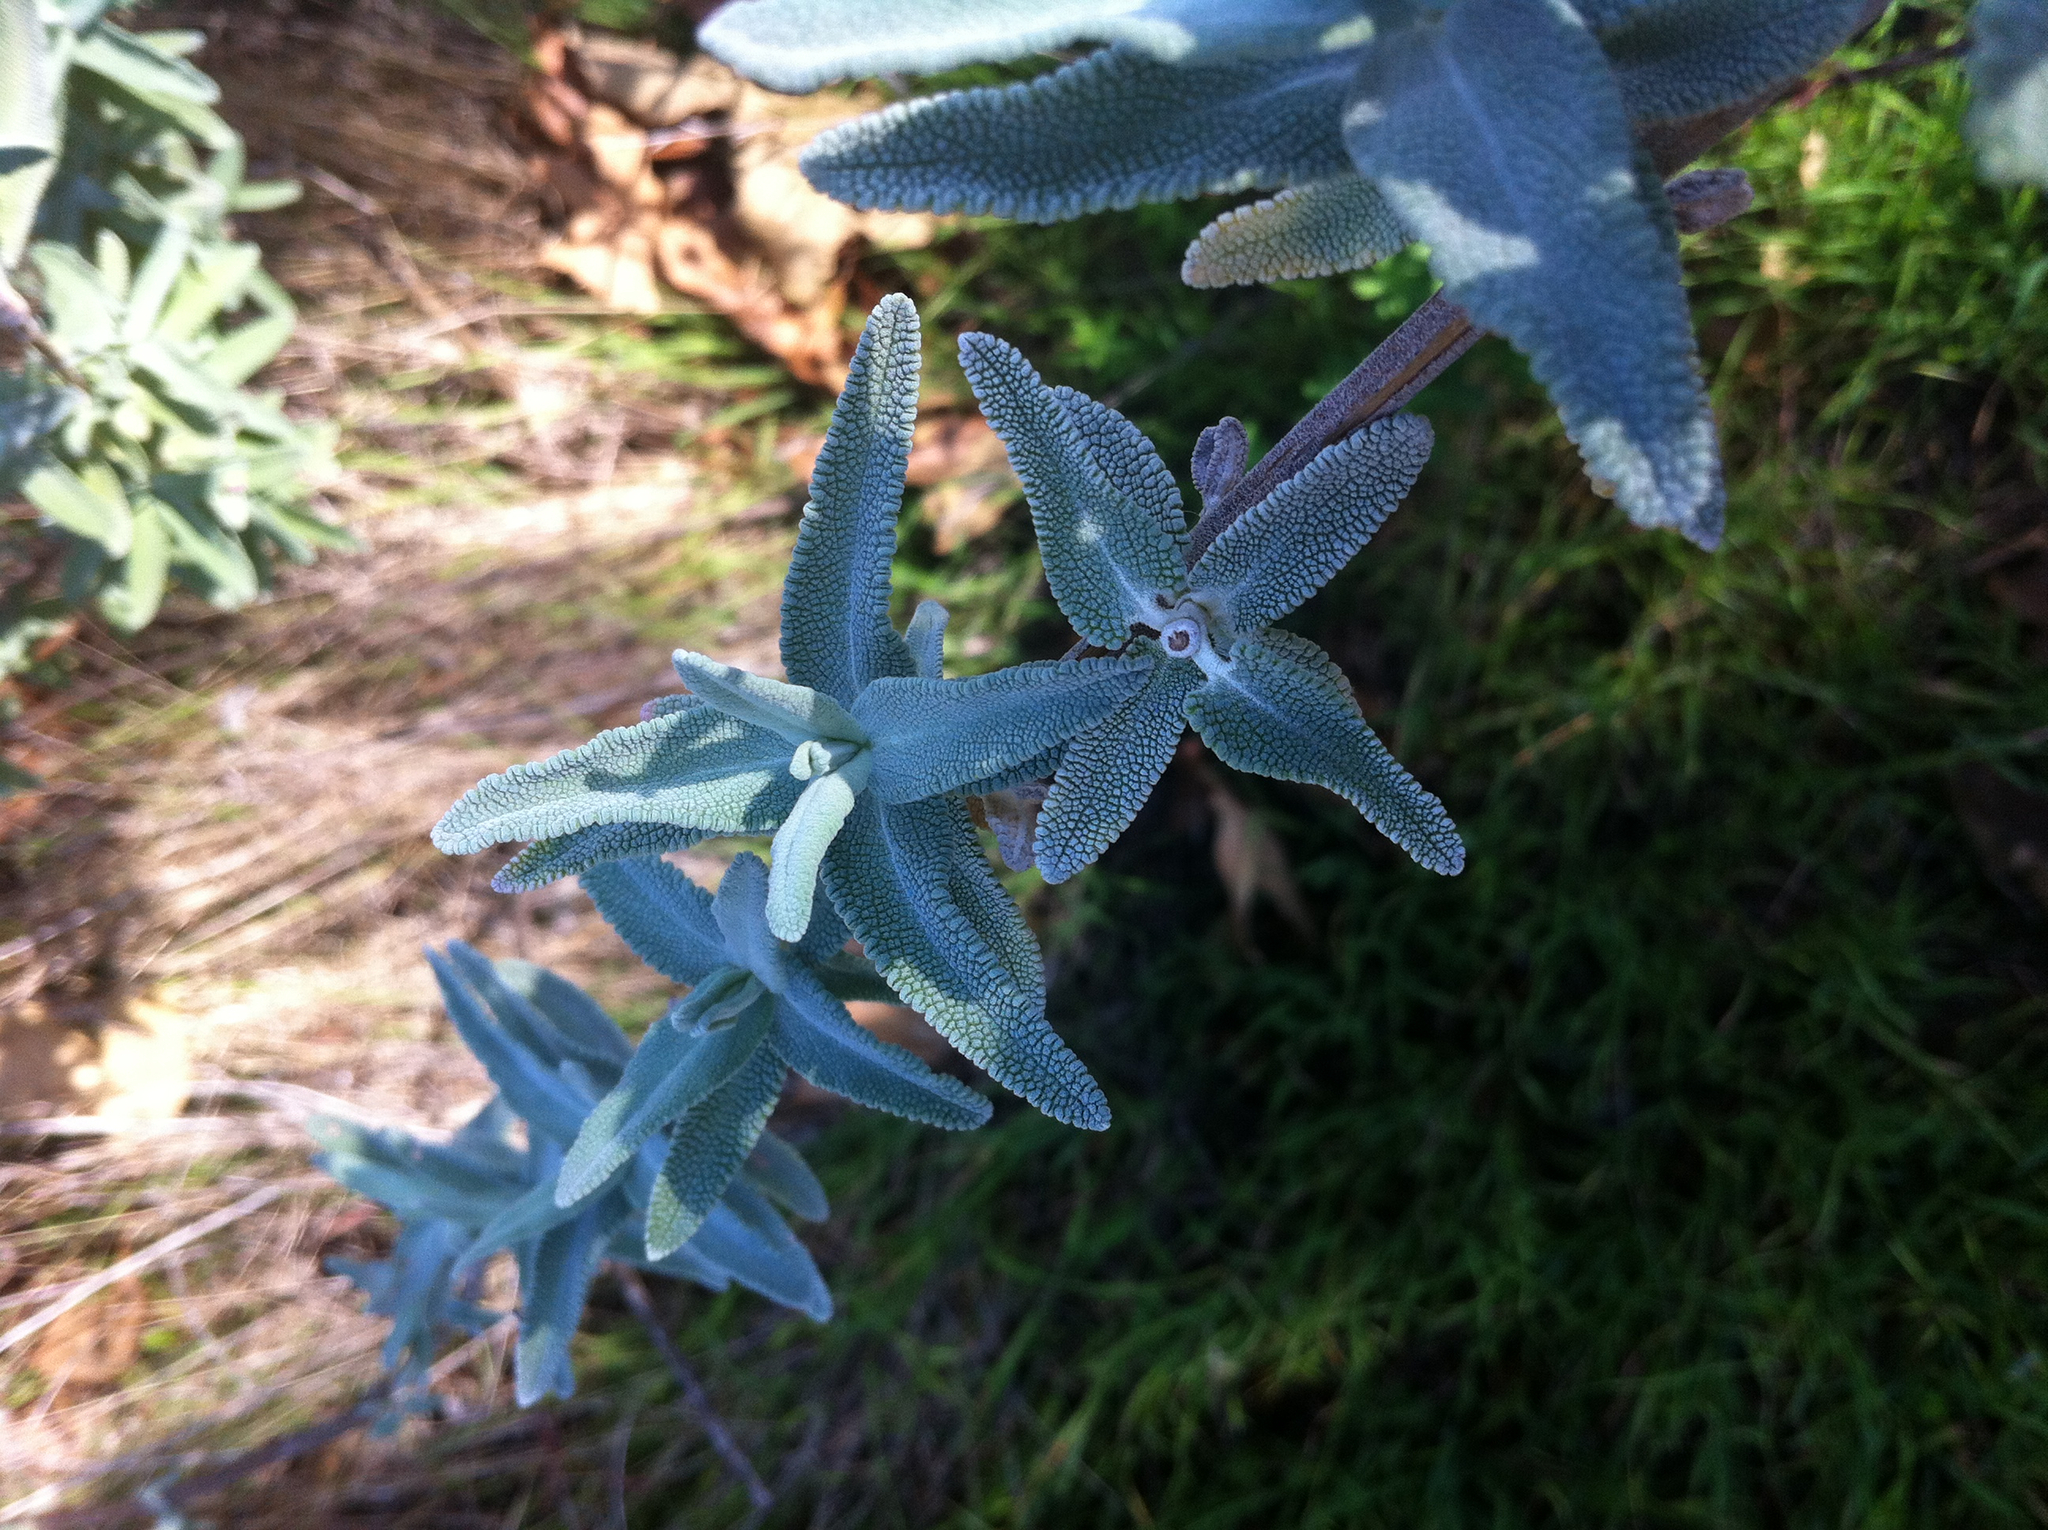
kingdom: Plantae
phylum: Tracheophyta
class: Magnoliopsida
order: Lamiales
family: Lamiaceae
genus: Salvia
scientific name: Salvia leucophylla
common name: Purple sage
